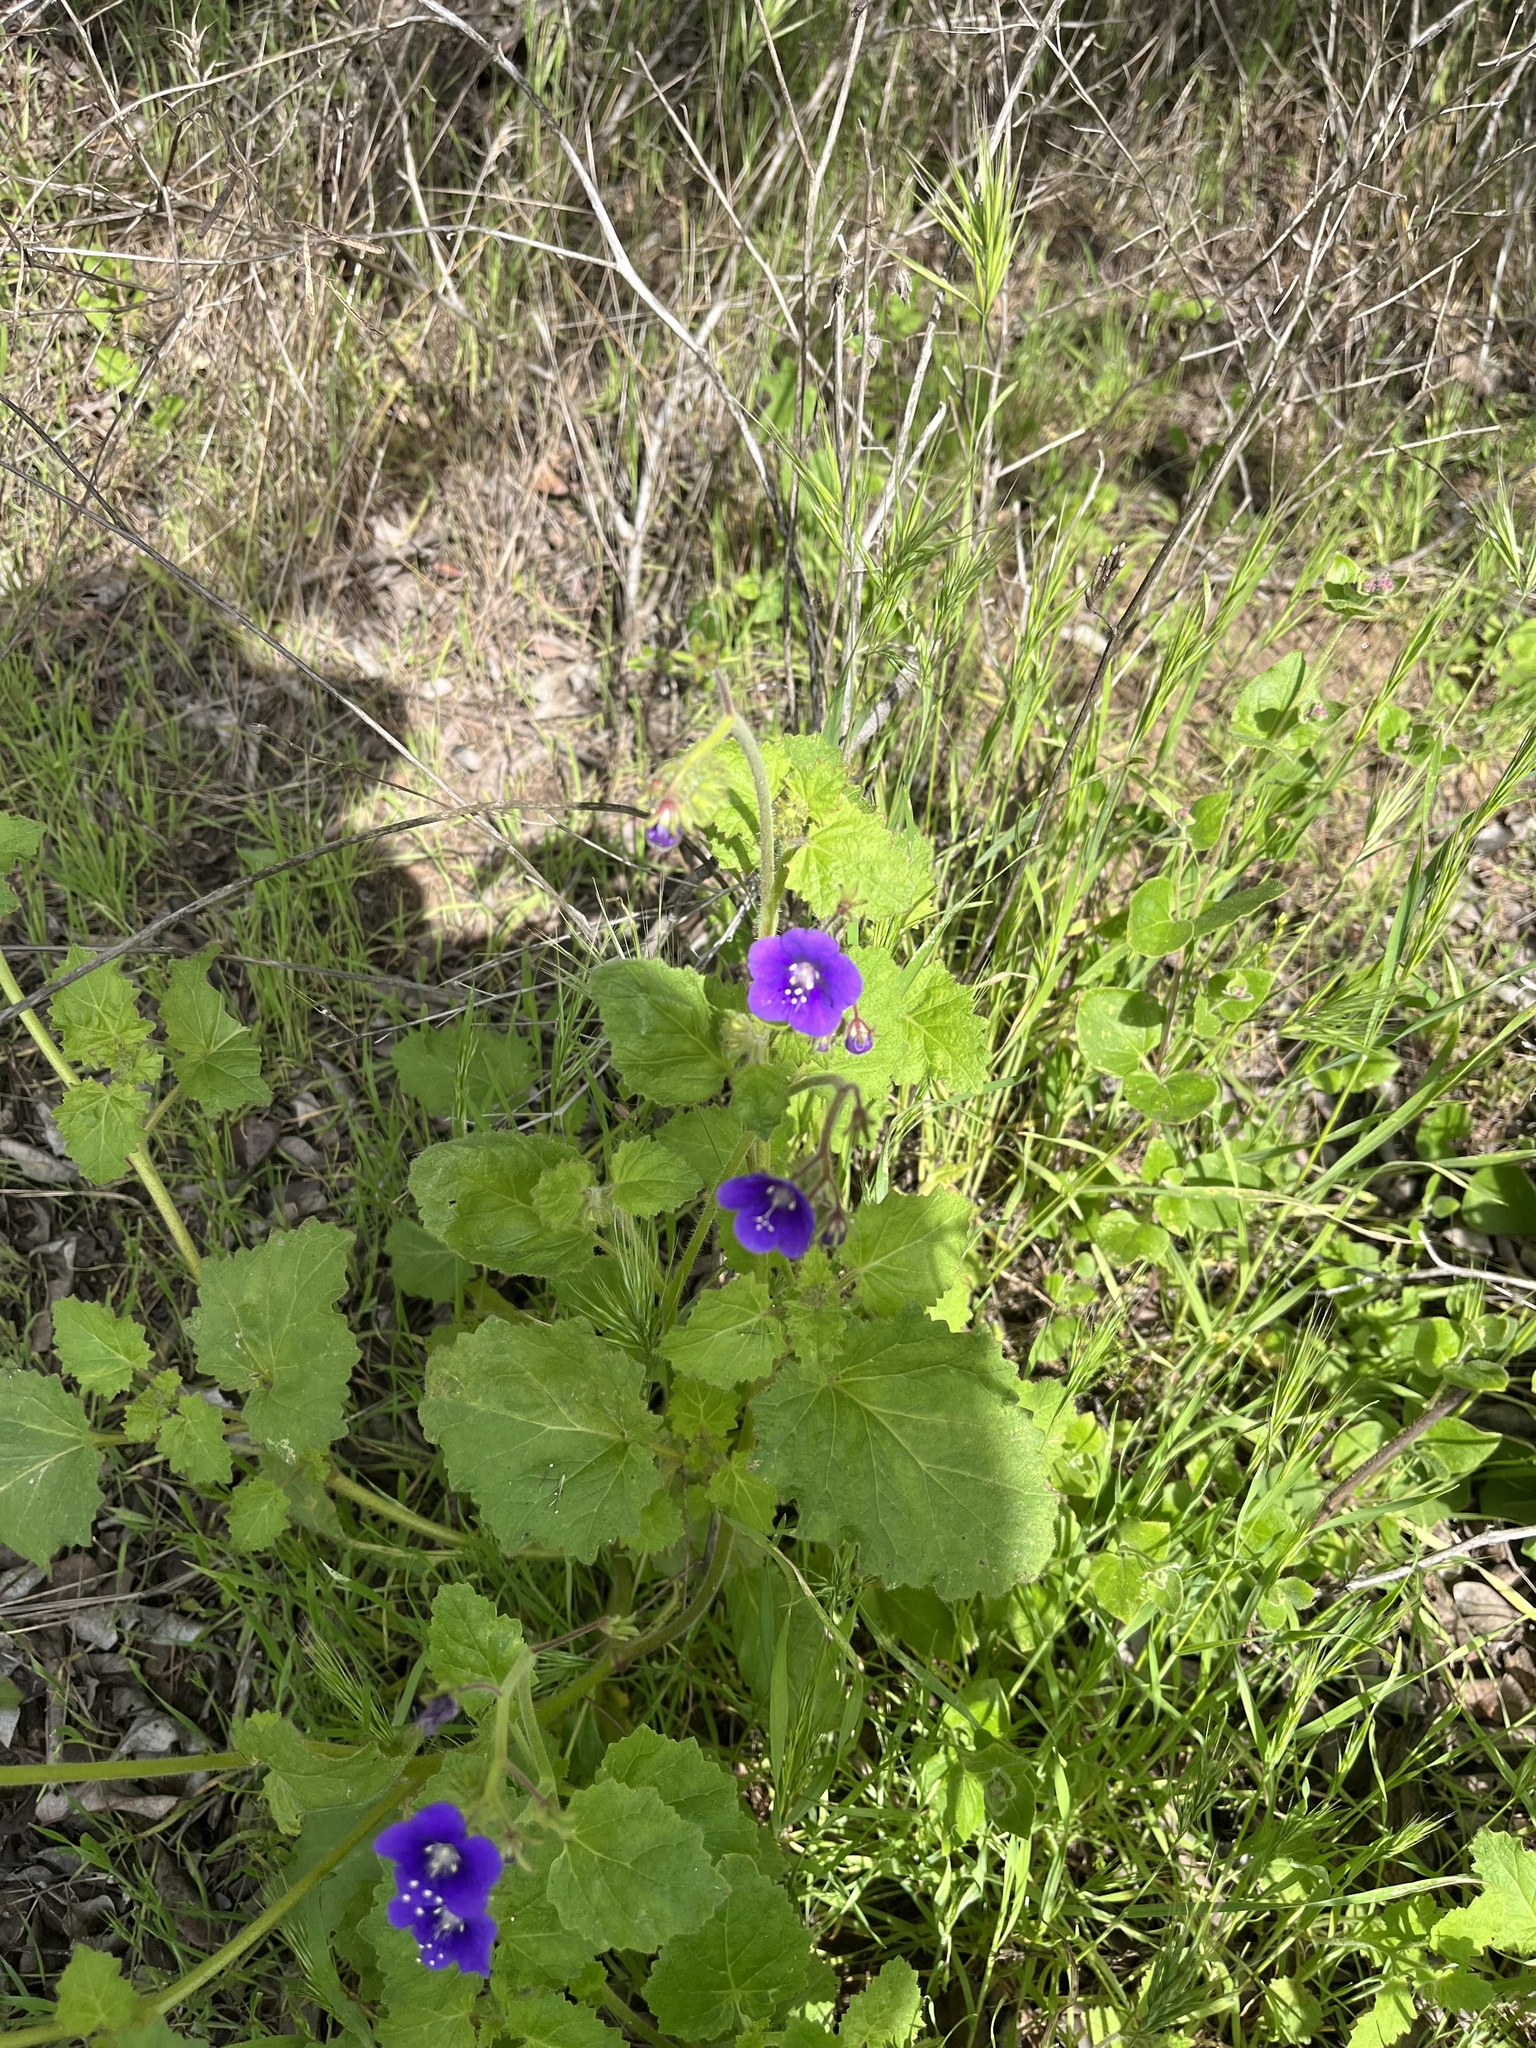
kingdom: Plantae
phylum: Tracheophyta
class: Magnoliopsida
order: Boraginales
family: Hydrophyllaceae
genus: Phacelia
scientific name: Phacelia parryi
